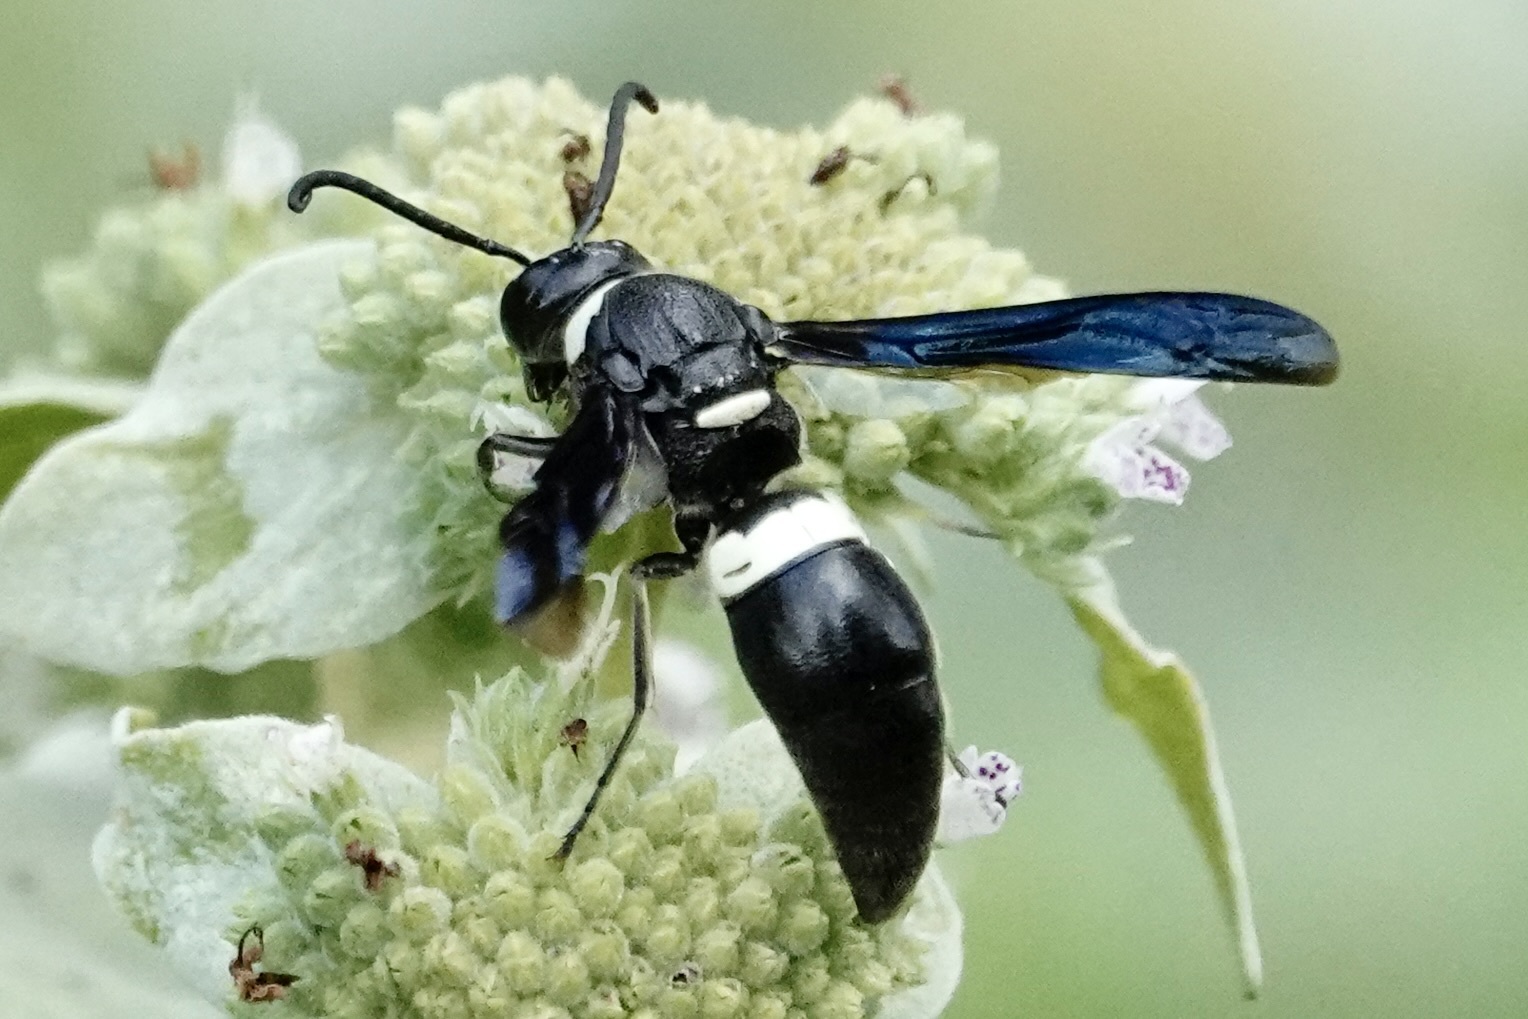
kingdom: Animalia
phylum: Arthropoda
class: Insecta
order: Hymenoptera
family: Eumenidae
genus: Monobia
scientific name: Monobia quadridens
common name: Four-toothed mason wasp
